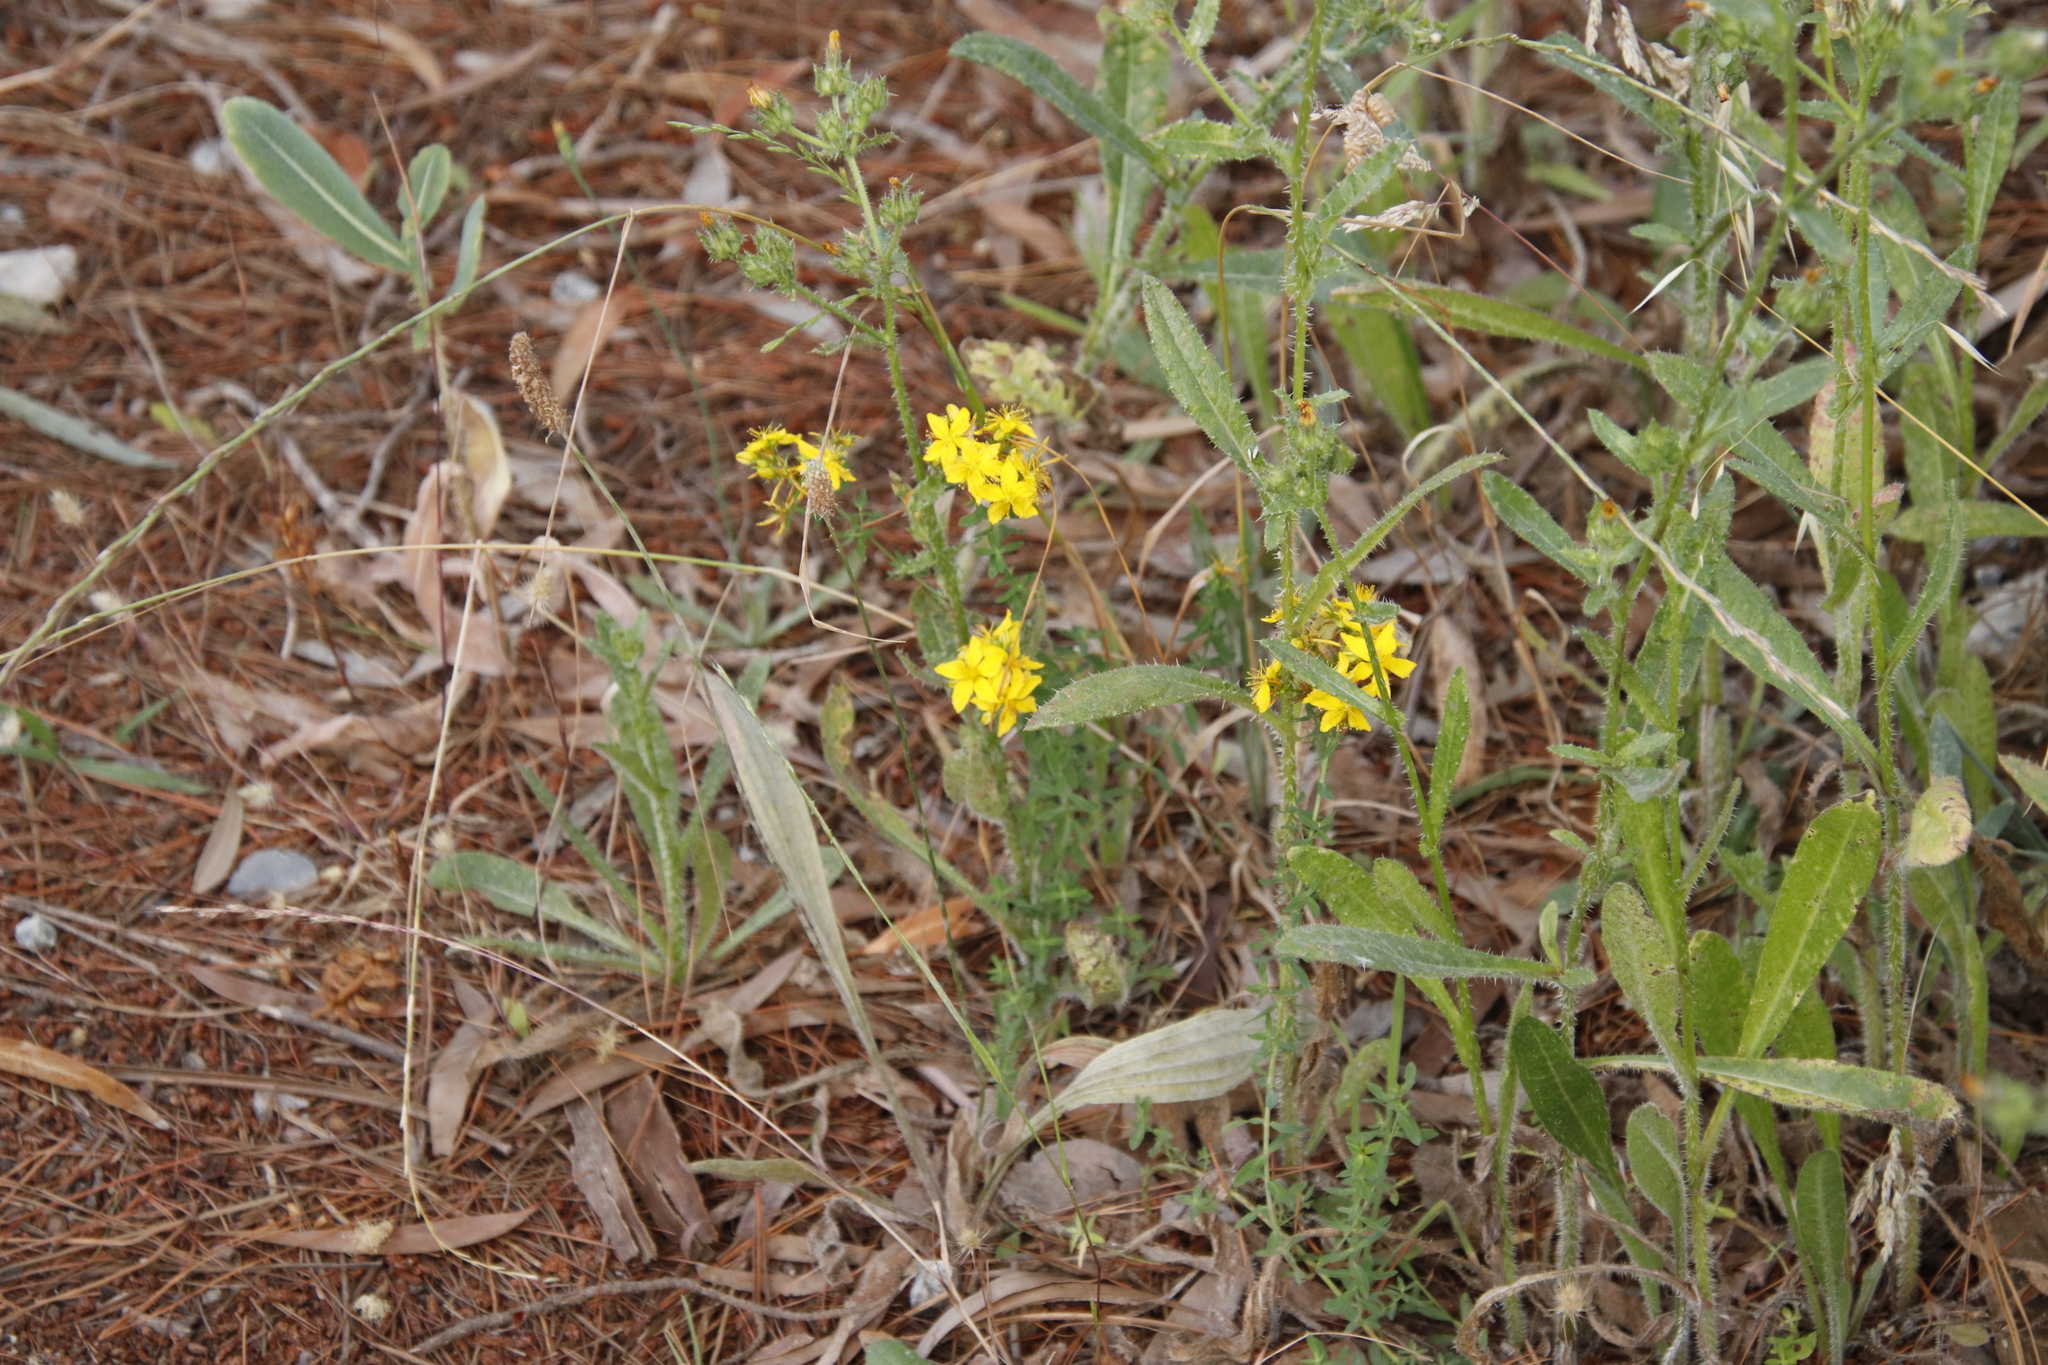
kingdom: Plantae
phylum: Tracheophyta
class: Magnoliopsida
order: Malpighiales
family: Hypericaceae
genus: Hypericum
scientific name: Hypericum perforatum
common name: Common st. johnswort
